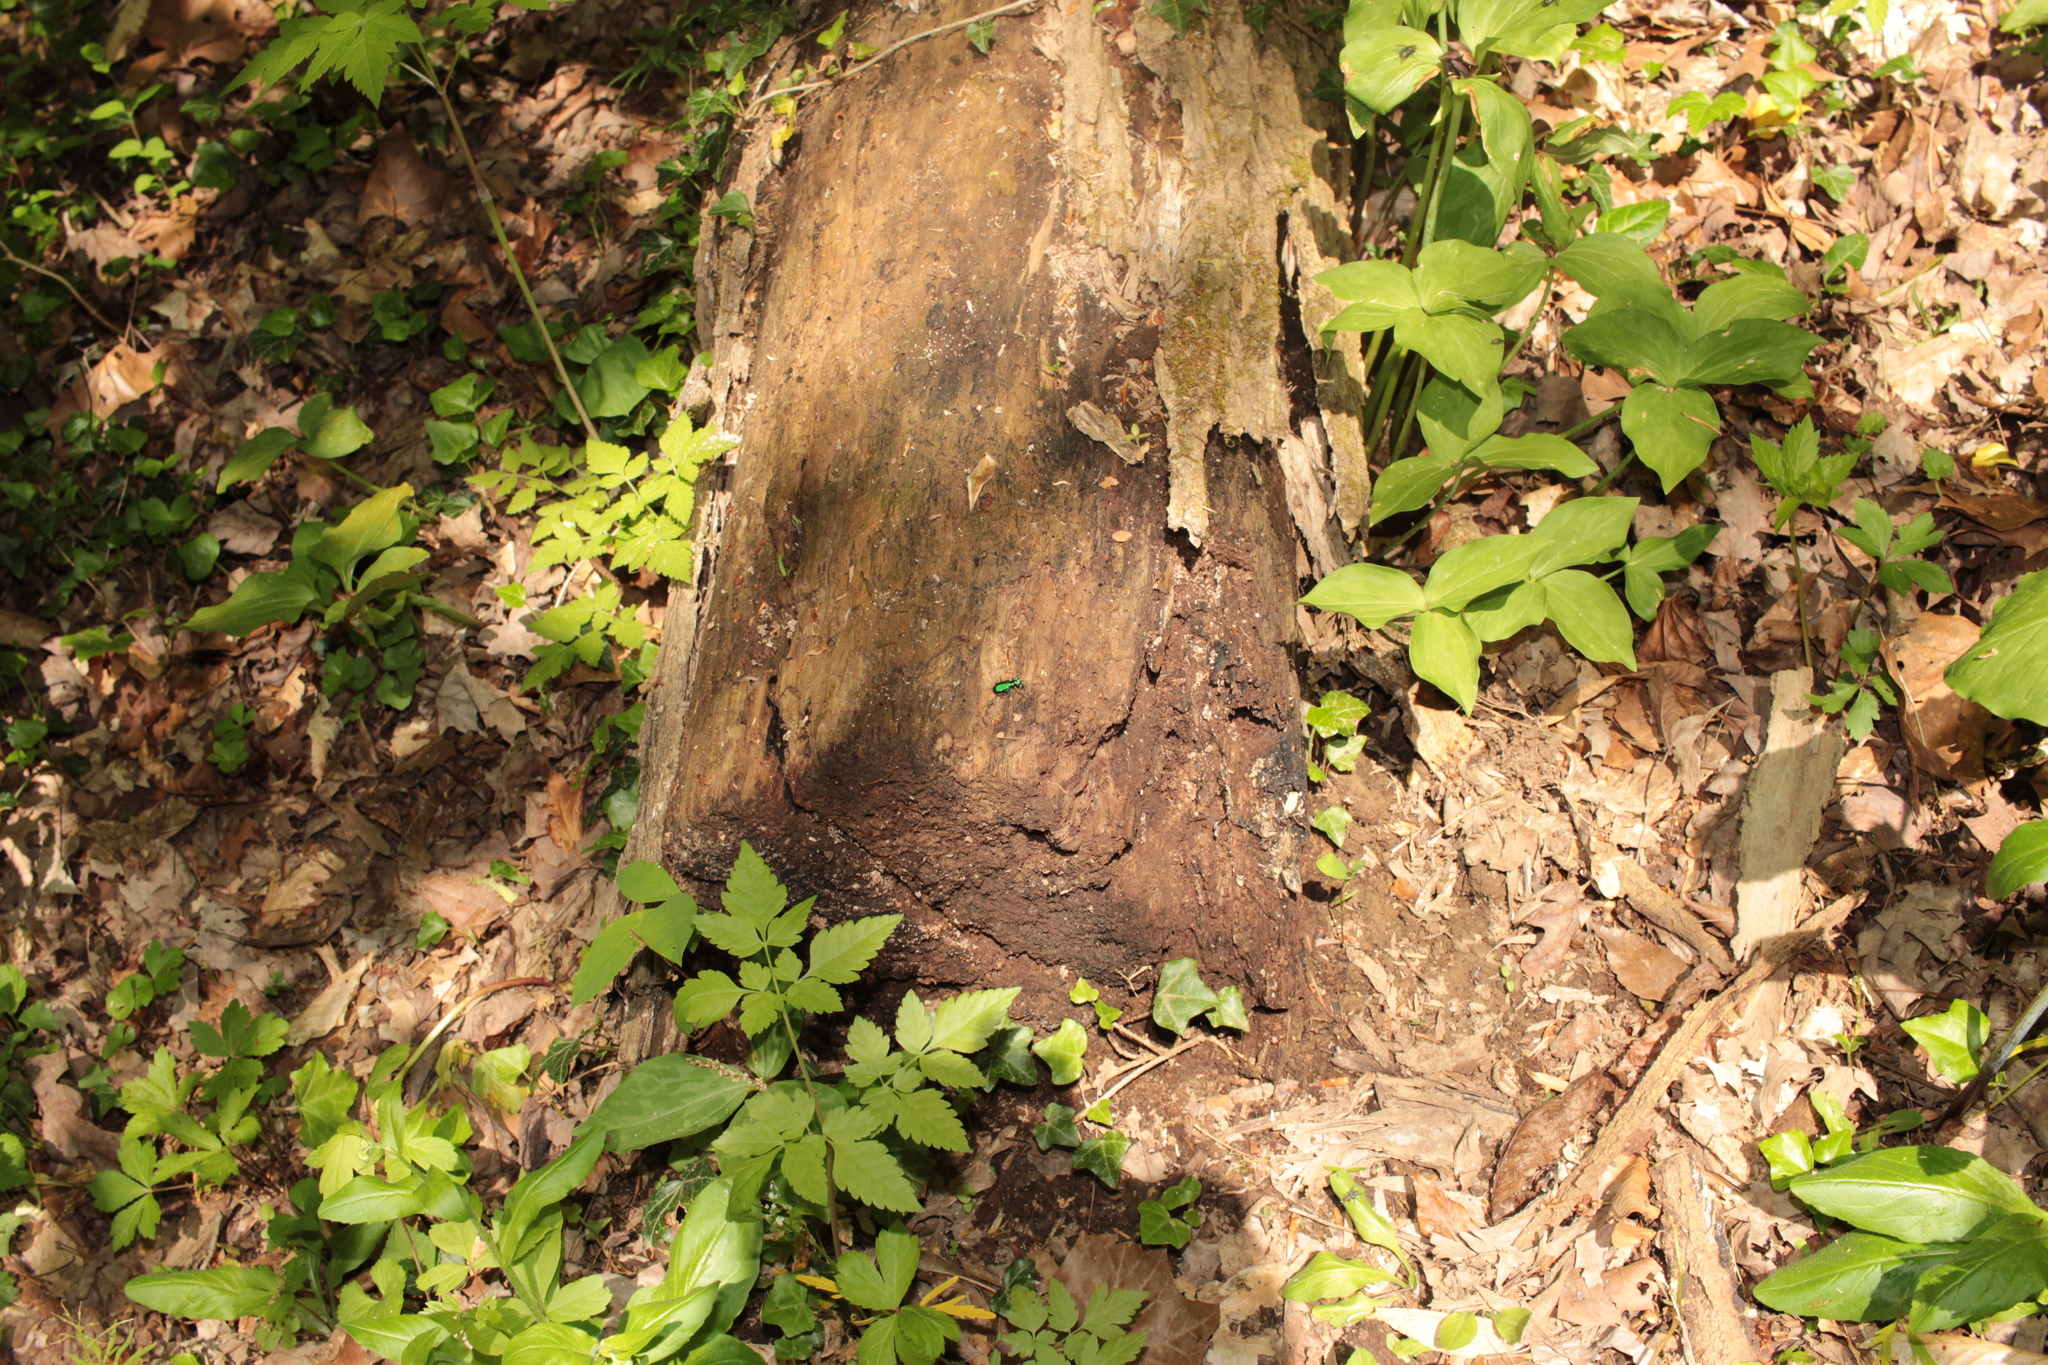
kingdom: Animalia
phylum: Arthropoda
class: Insecta
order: Coleoptera
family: Carabidae
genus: Cicindela
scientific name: Cicindela sexguttata
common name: Six-spotted tiger beetle
